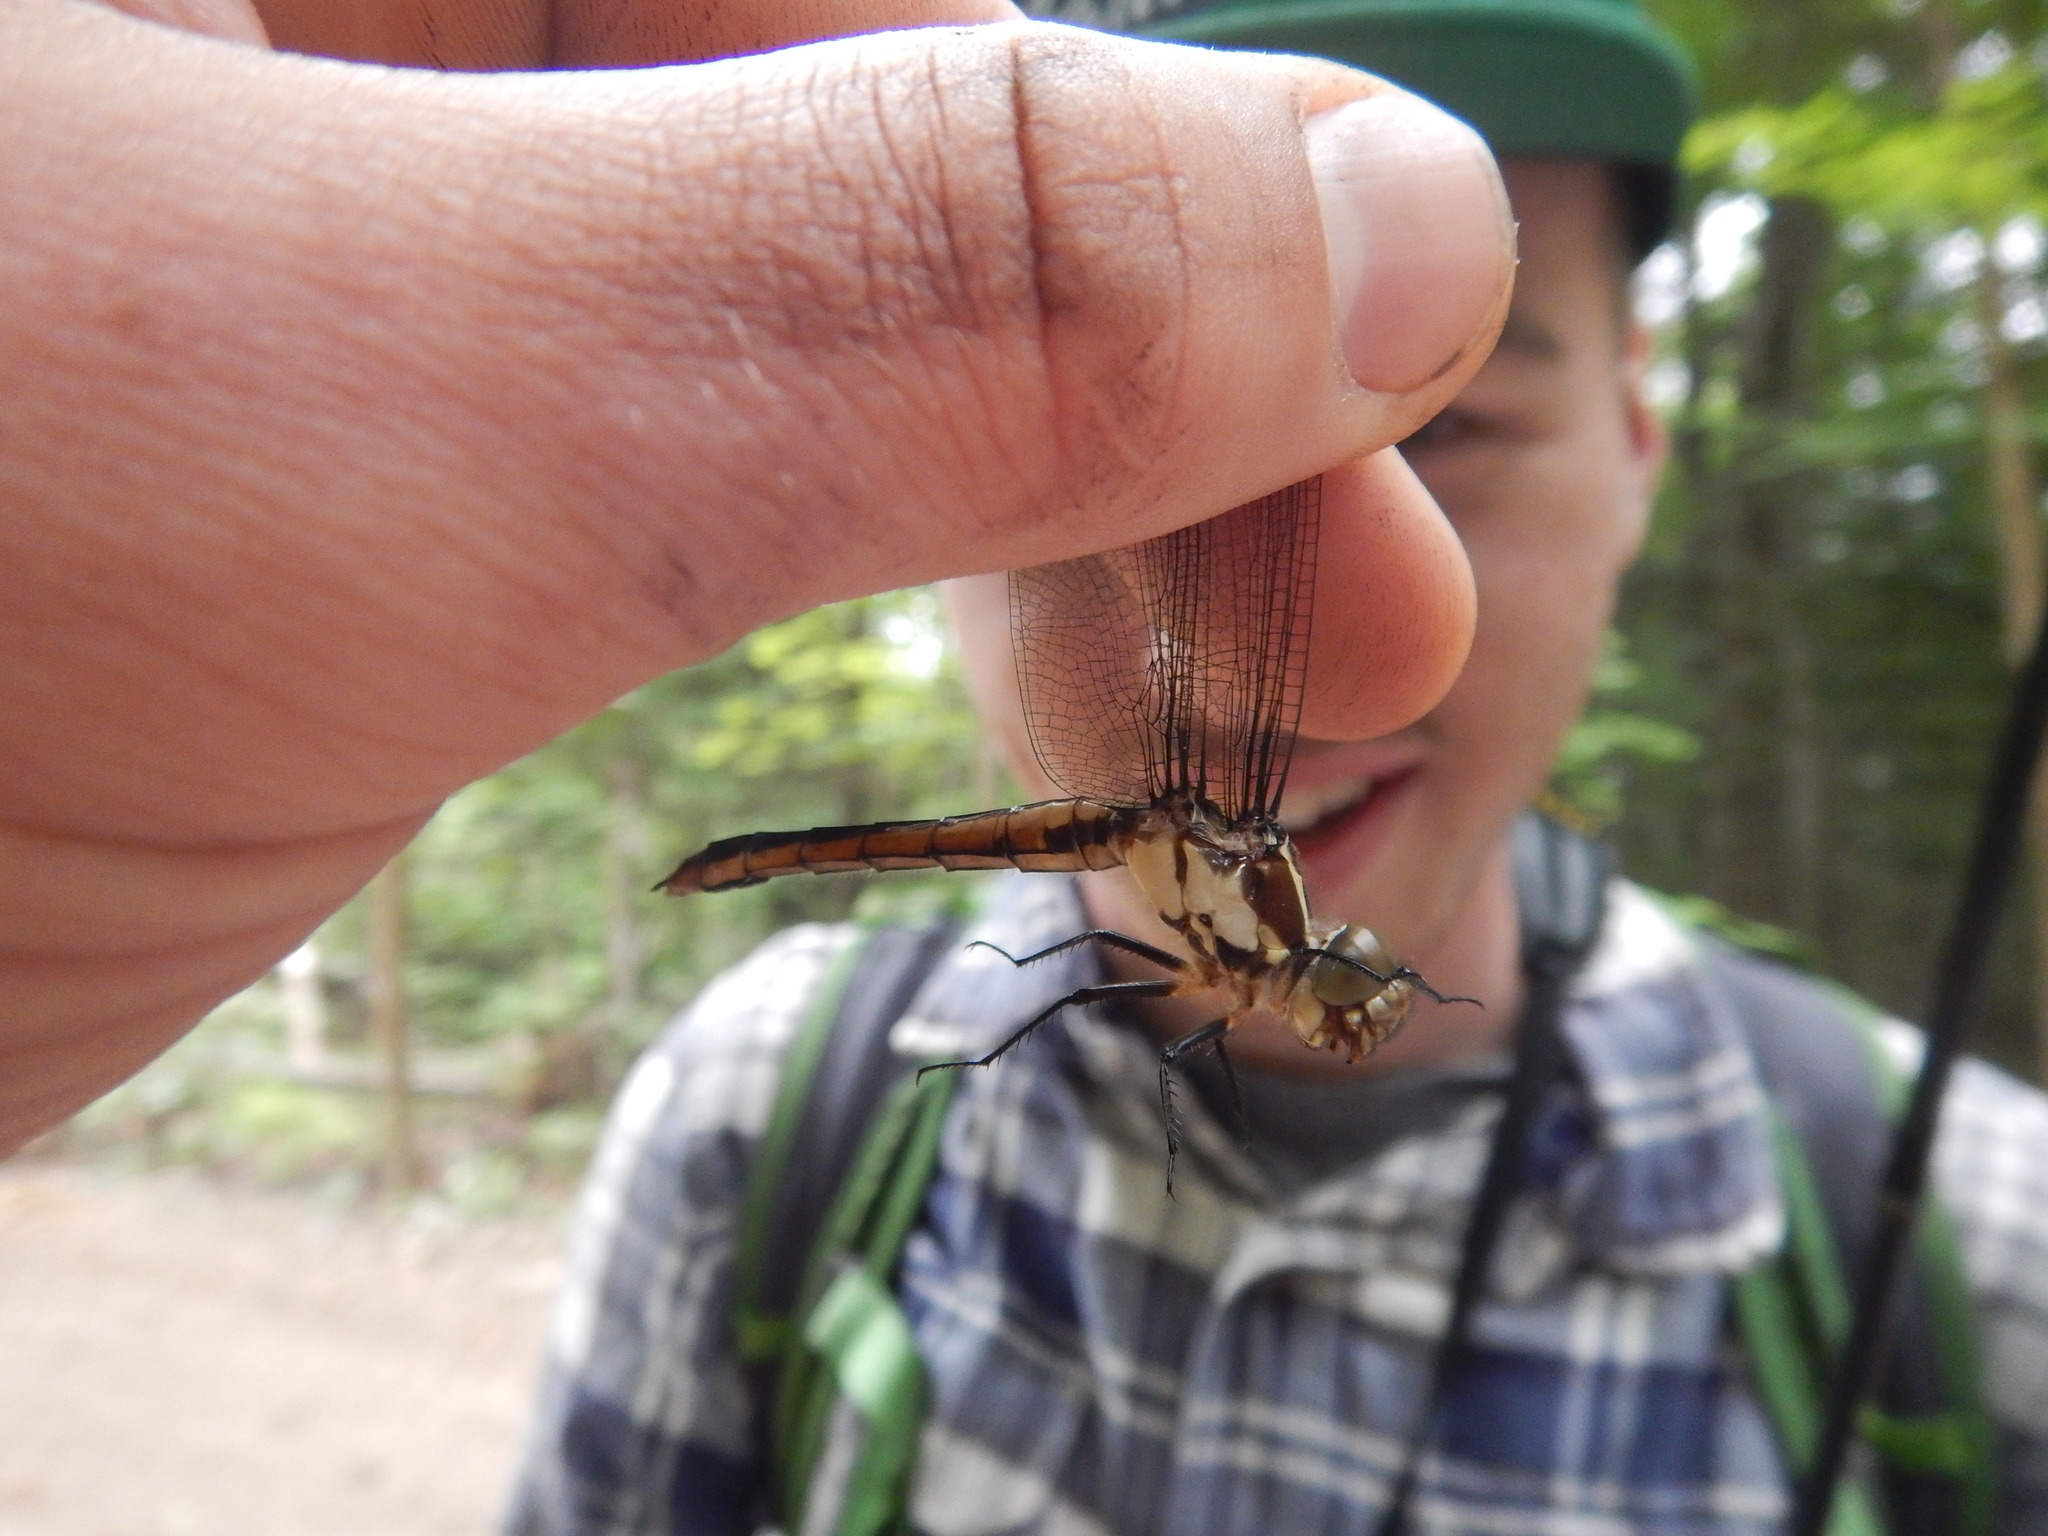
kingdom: Animalia
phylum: Arthropoda
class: Insecta
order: Odonata
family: Libellulidae
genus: Libellula
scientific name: Libellula incesta
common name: Slaty skimmer
